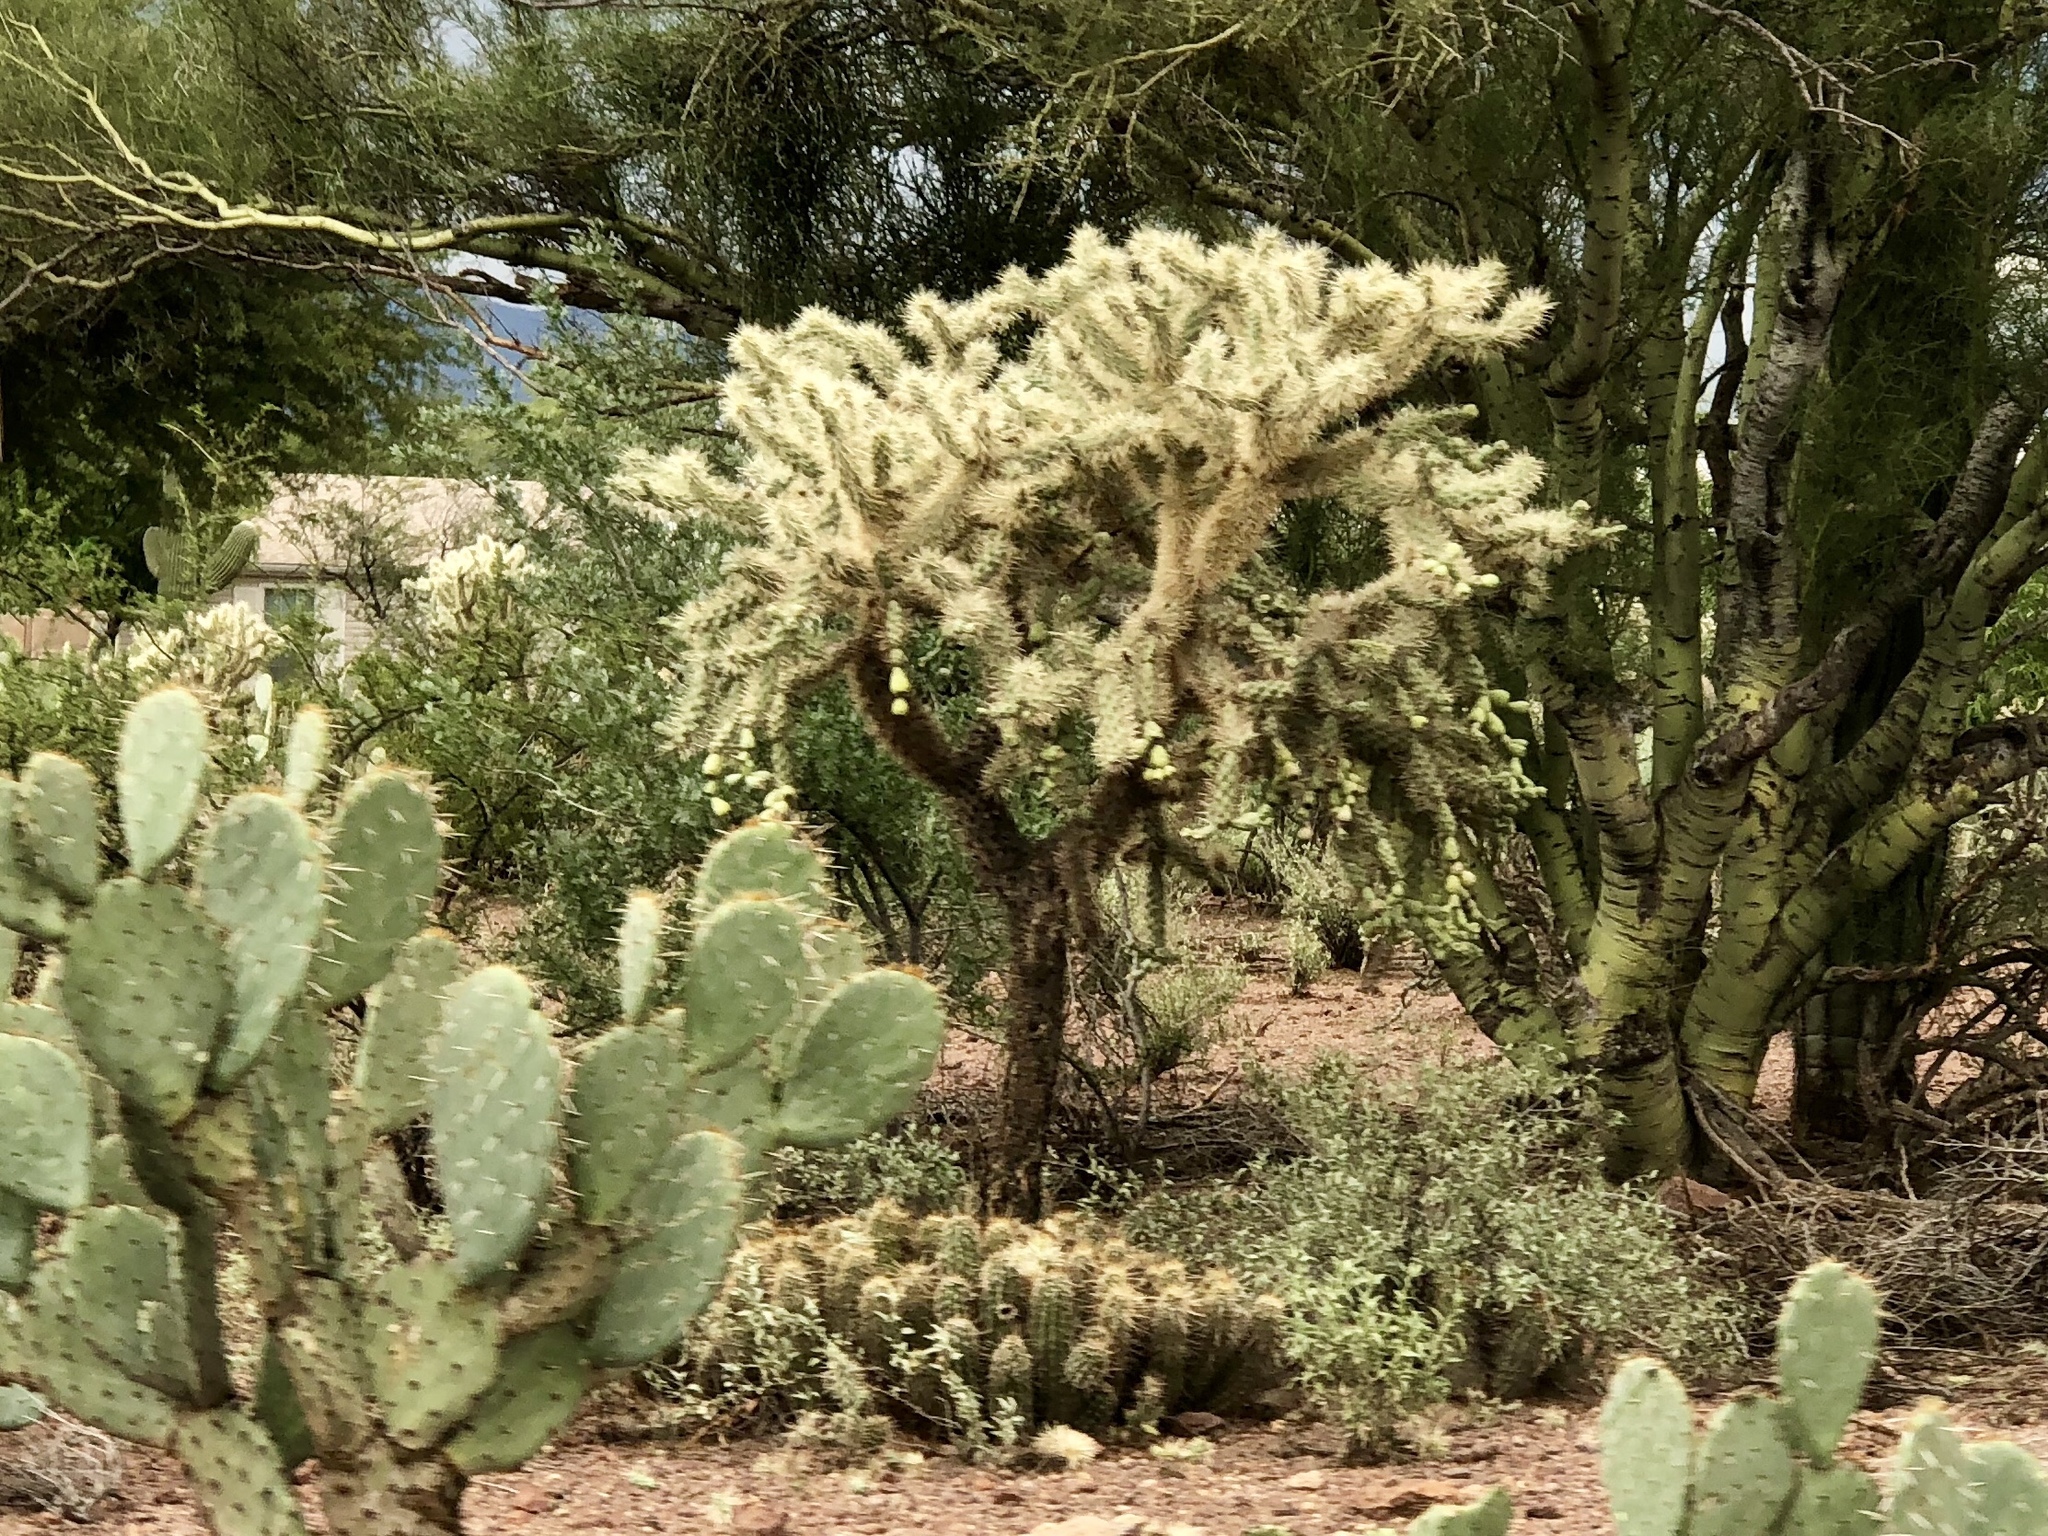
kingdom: Plantae
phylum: Tracheophyta
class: Magnoliopsida
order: Caryophyllales
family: Cactaceae
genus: Cylindropuntia
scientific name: Cylindropuntia fulgida
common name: Jumping cholla
